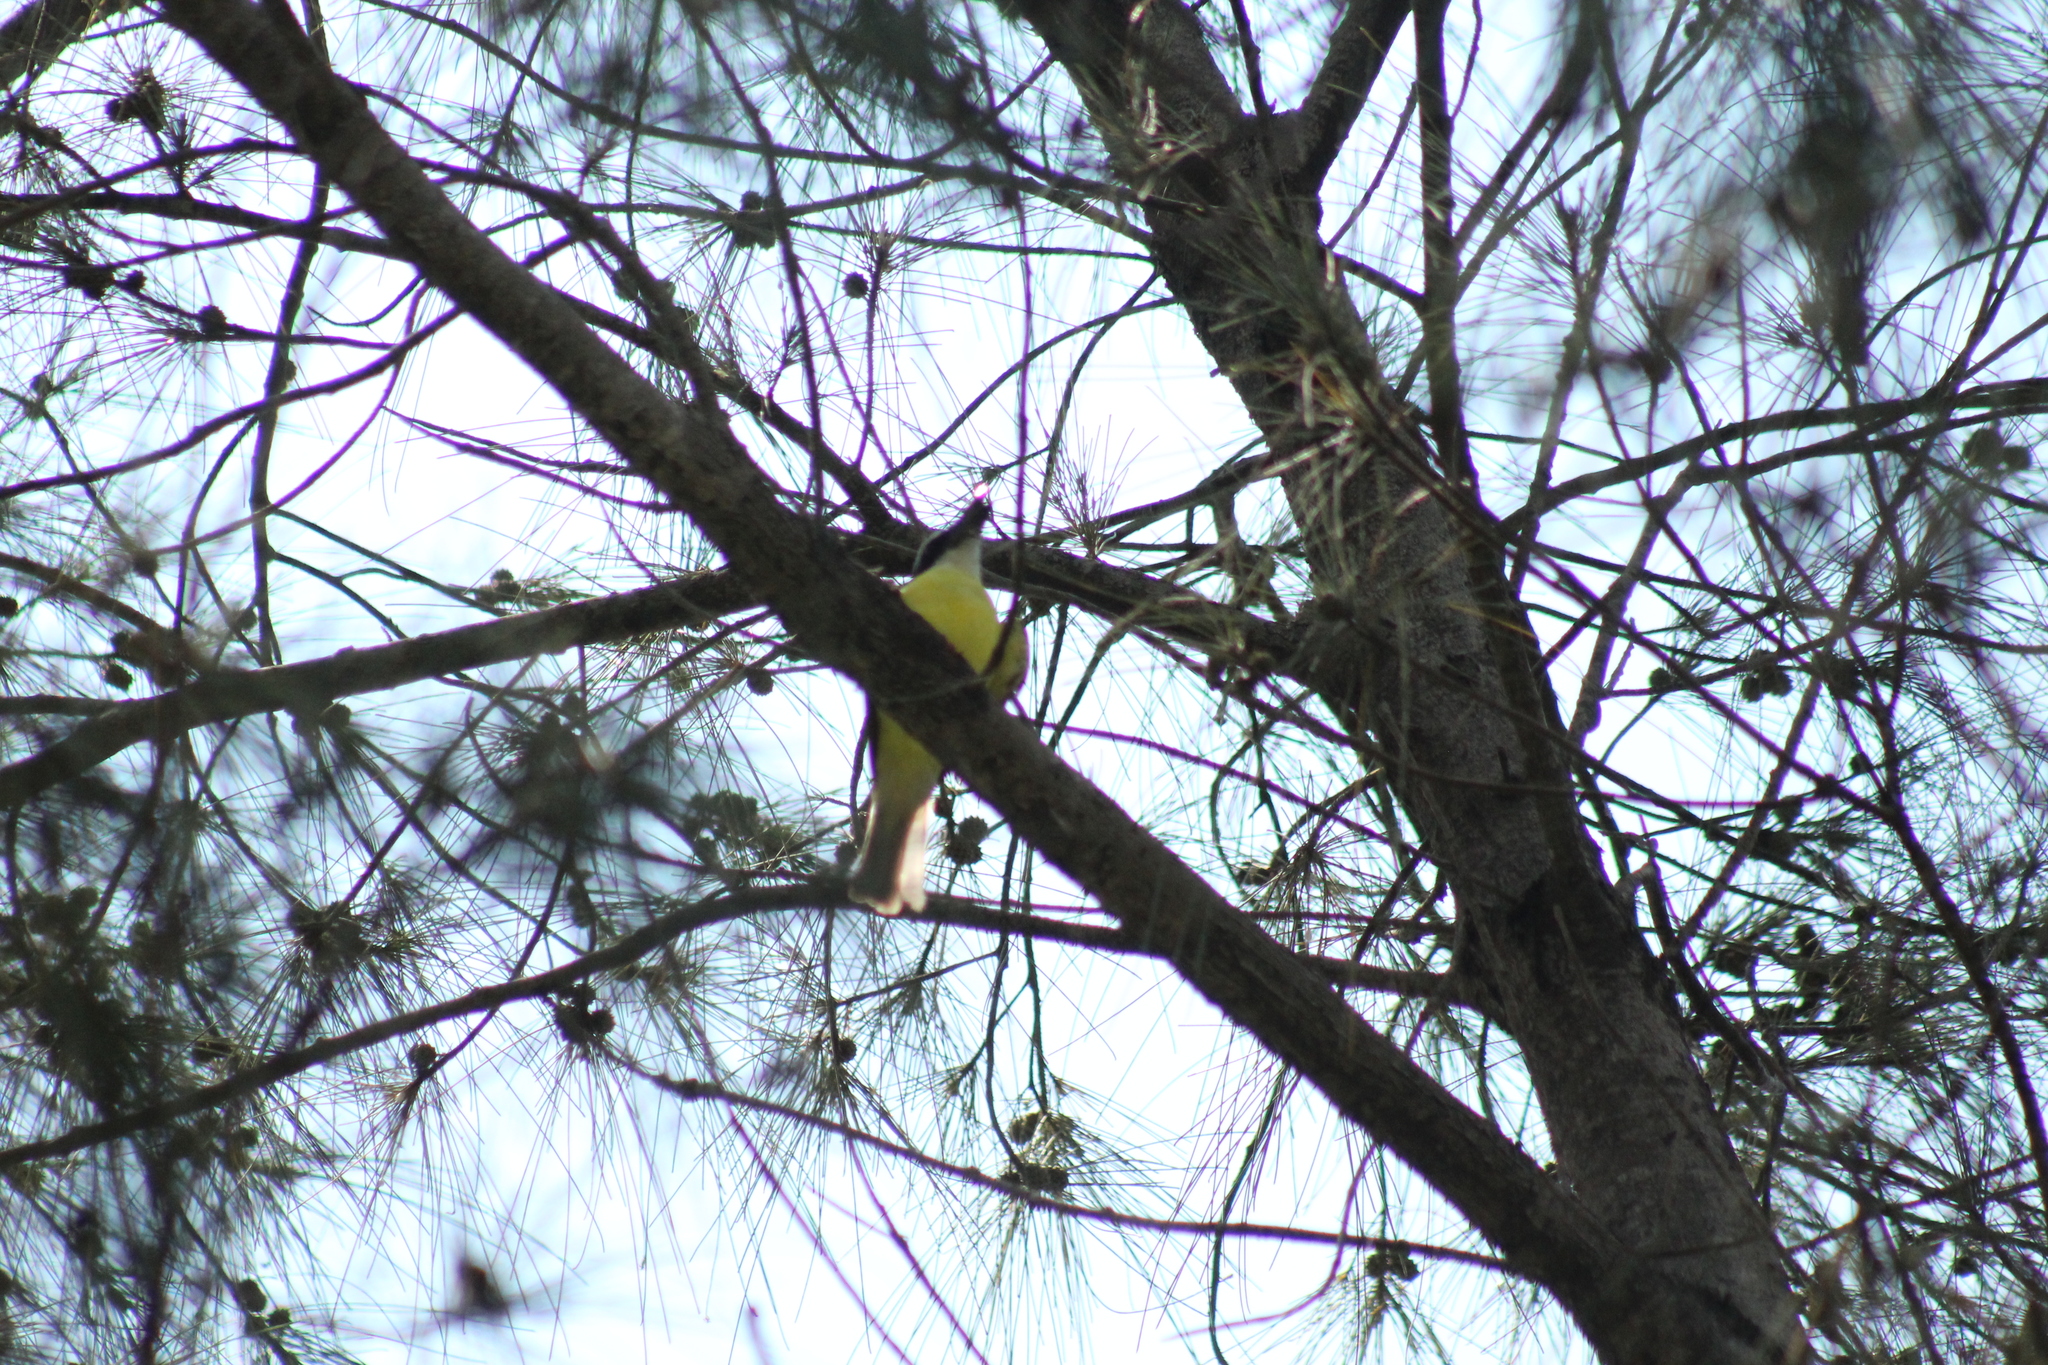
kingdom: Animalia
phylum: Chordata
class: Aves
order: Passeriformes
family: Tyrannidae
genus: Megarynchus
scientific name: Megarynchus pitangua
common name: Boat-billed flycatcher
